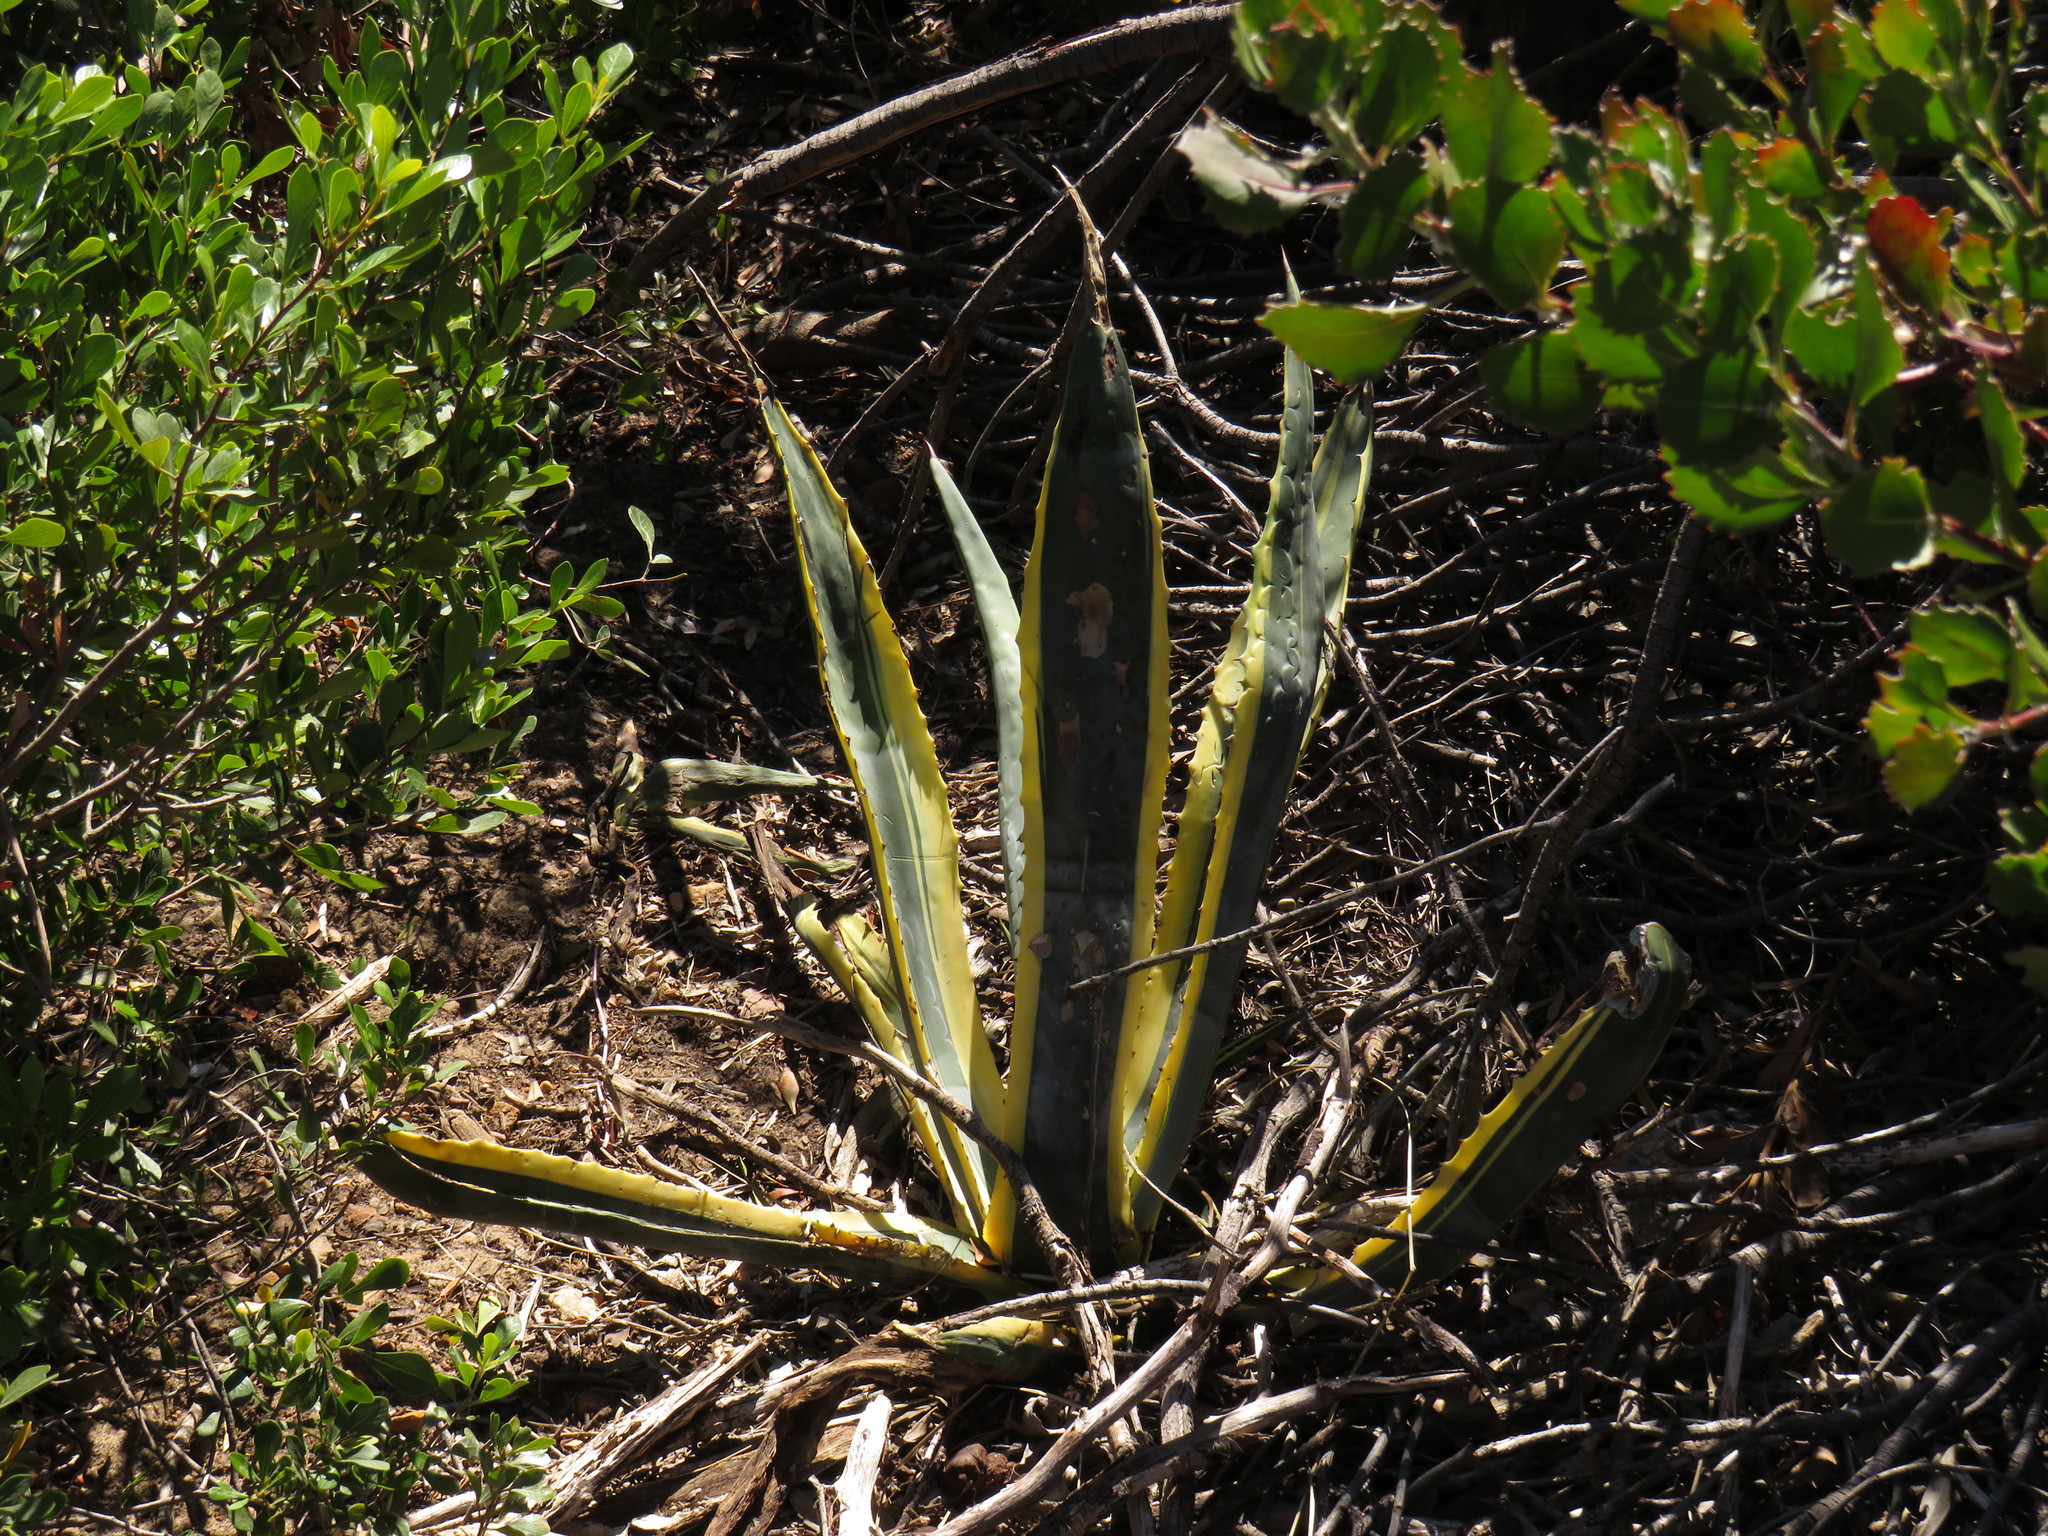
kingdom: Plantae
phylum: Tracheophyta
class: Liliopsida
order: Asparagales
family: Asparagaceae
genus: Agave
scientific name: Agave americana
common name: Centuryplant
